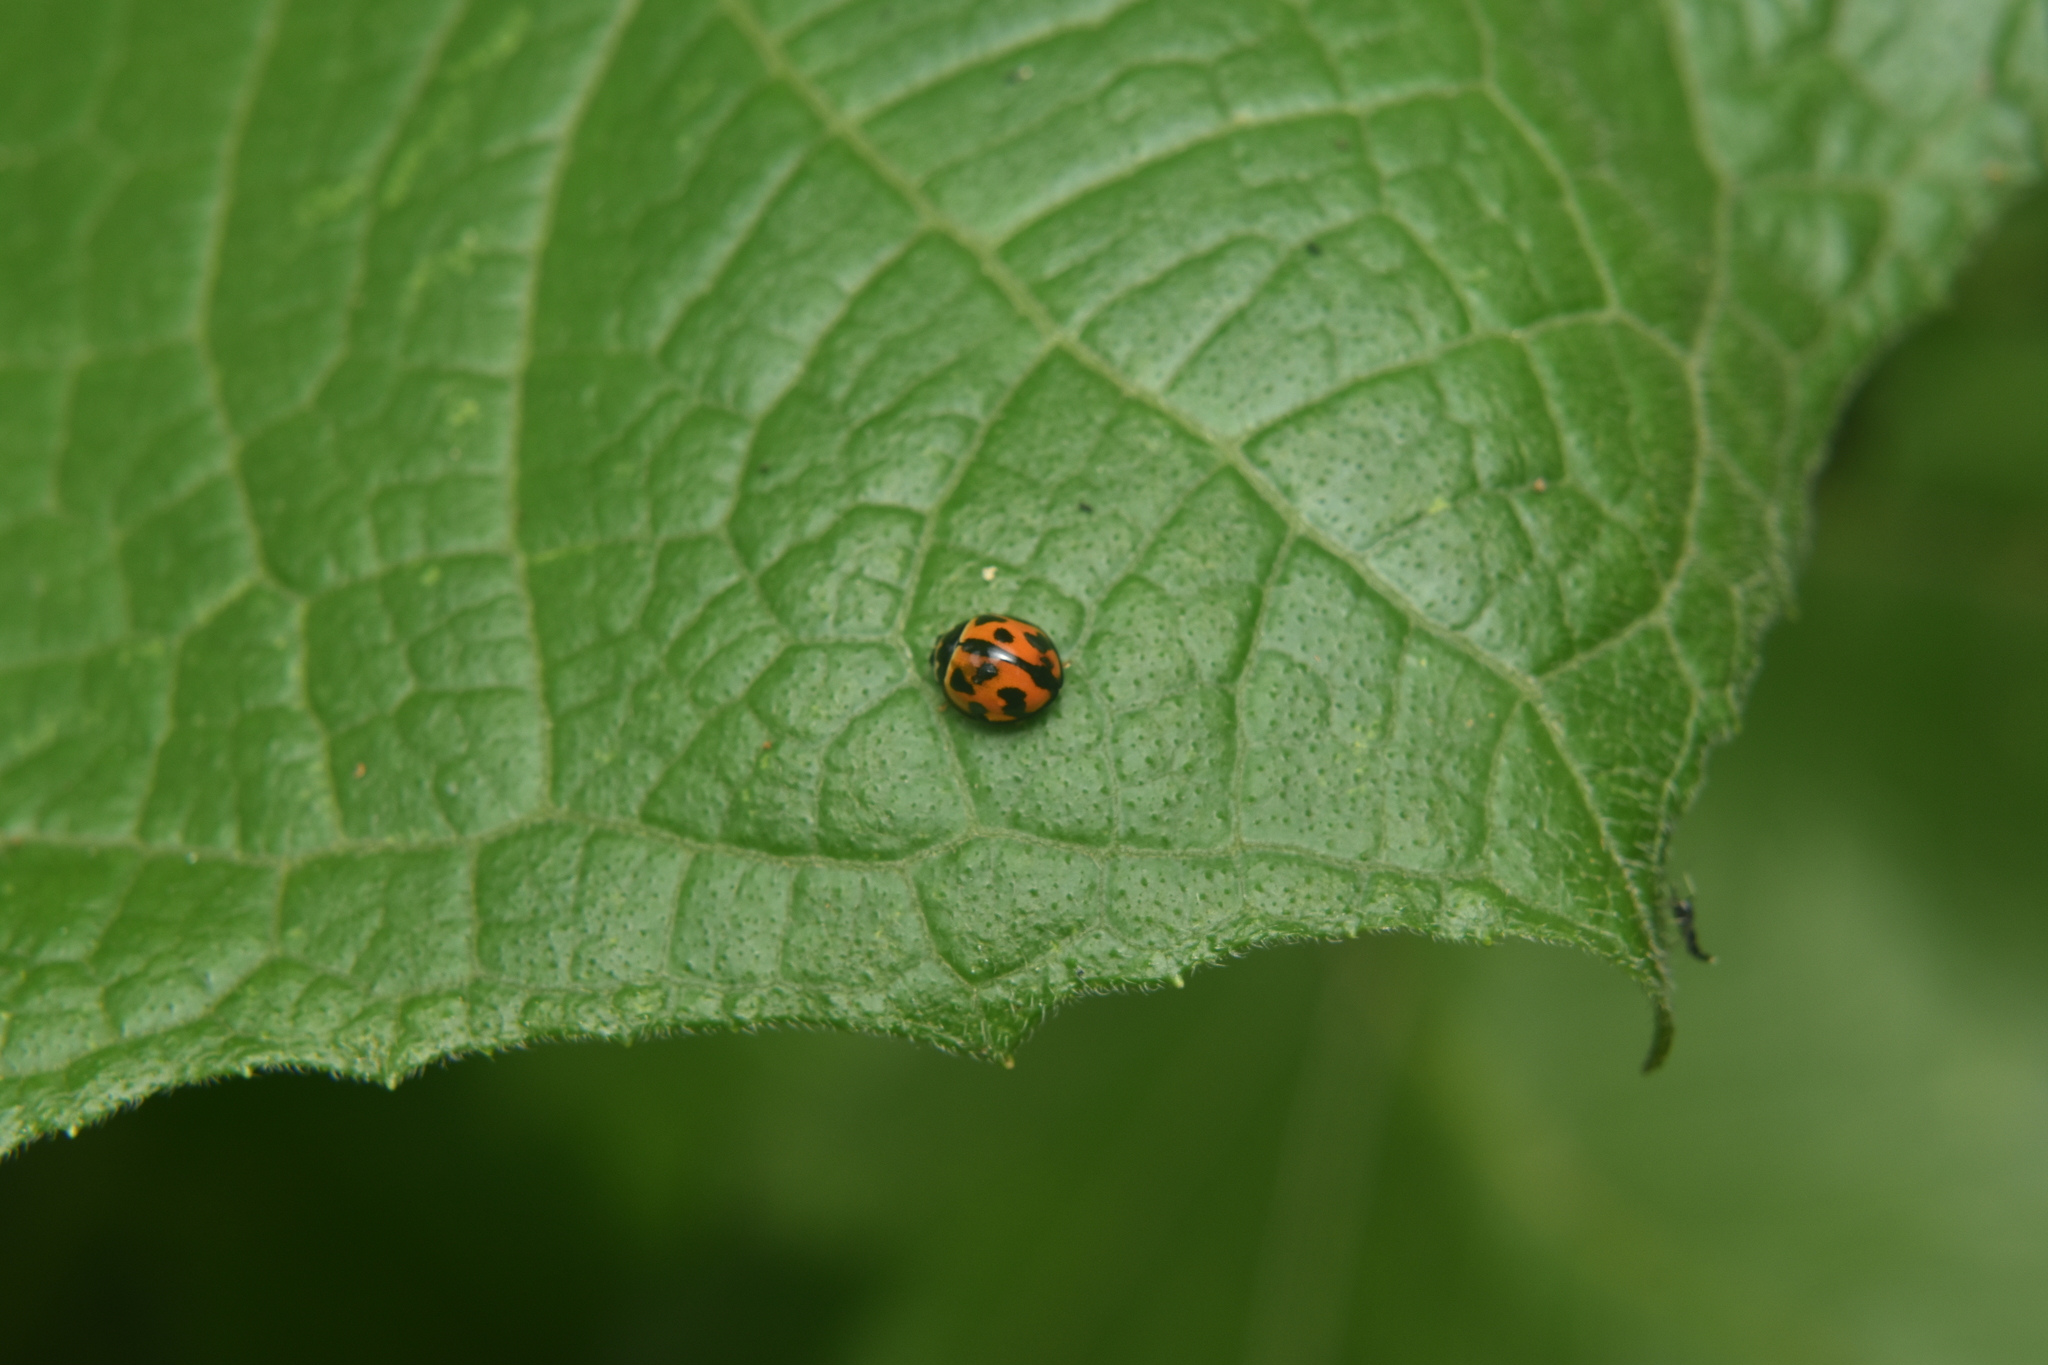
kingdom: Animalia
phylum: Arthropoda
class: Insecta
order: Coleoptera
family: Coccinellidae
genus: Coelophora
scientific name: Coelophora inaequalis
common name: Common australian lady beetle
